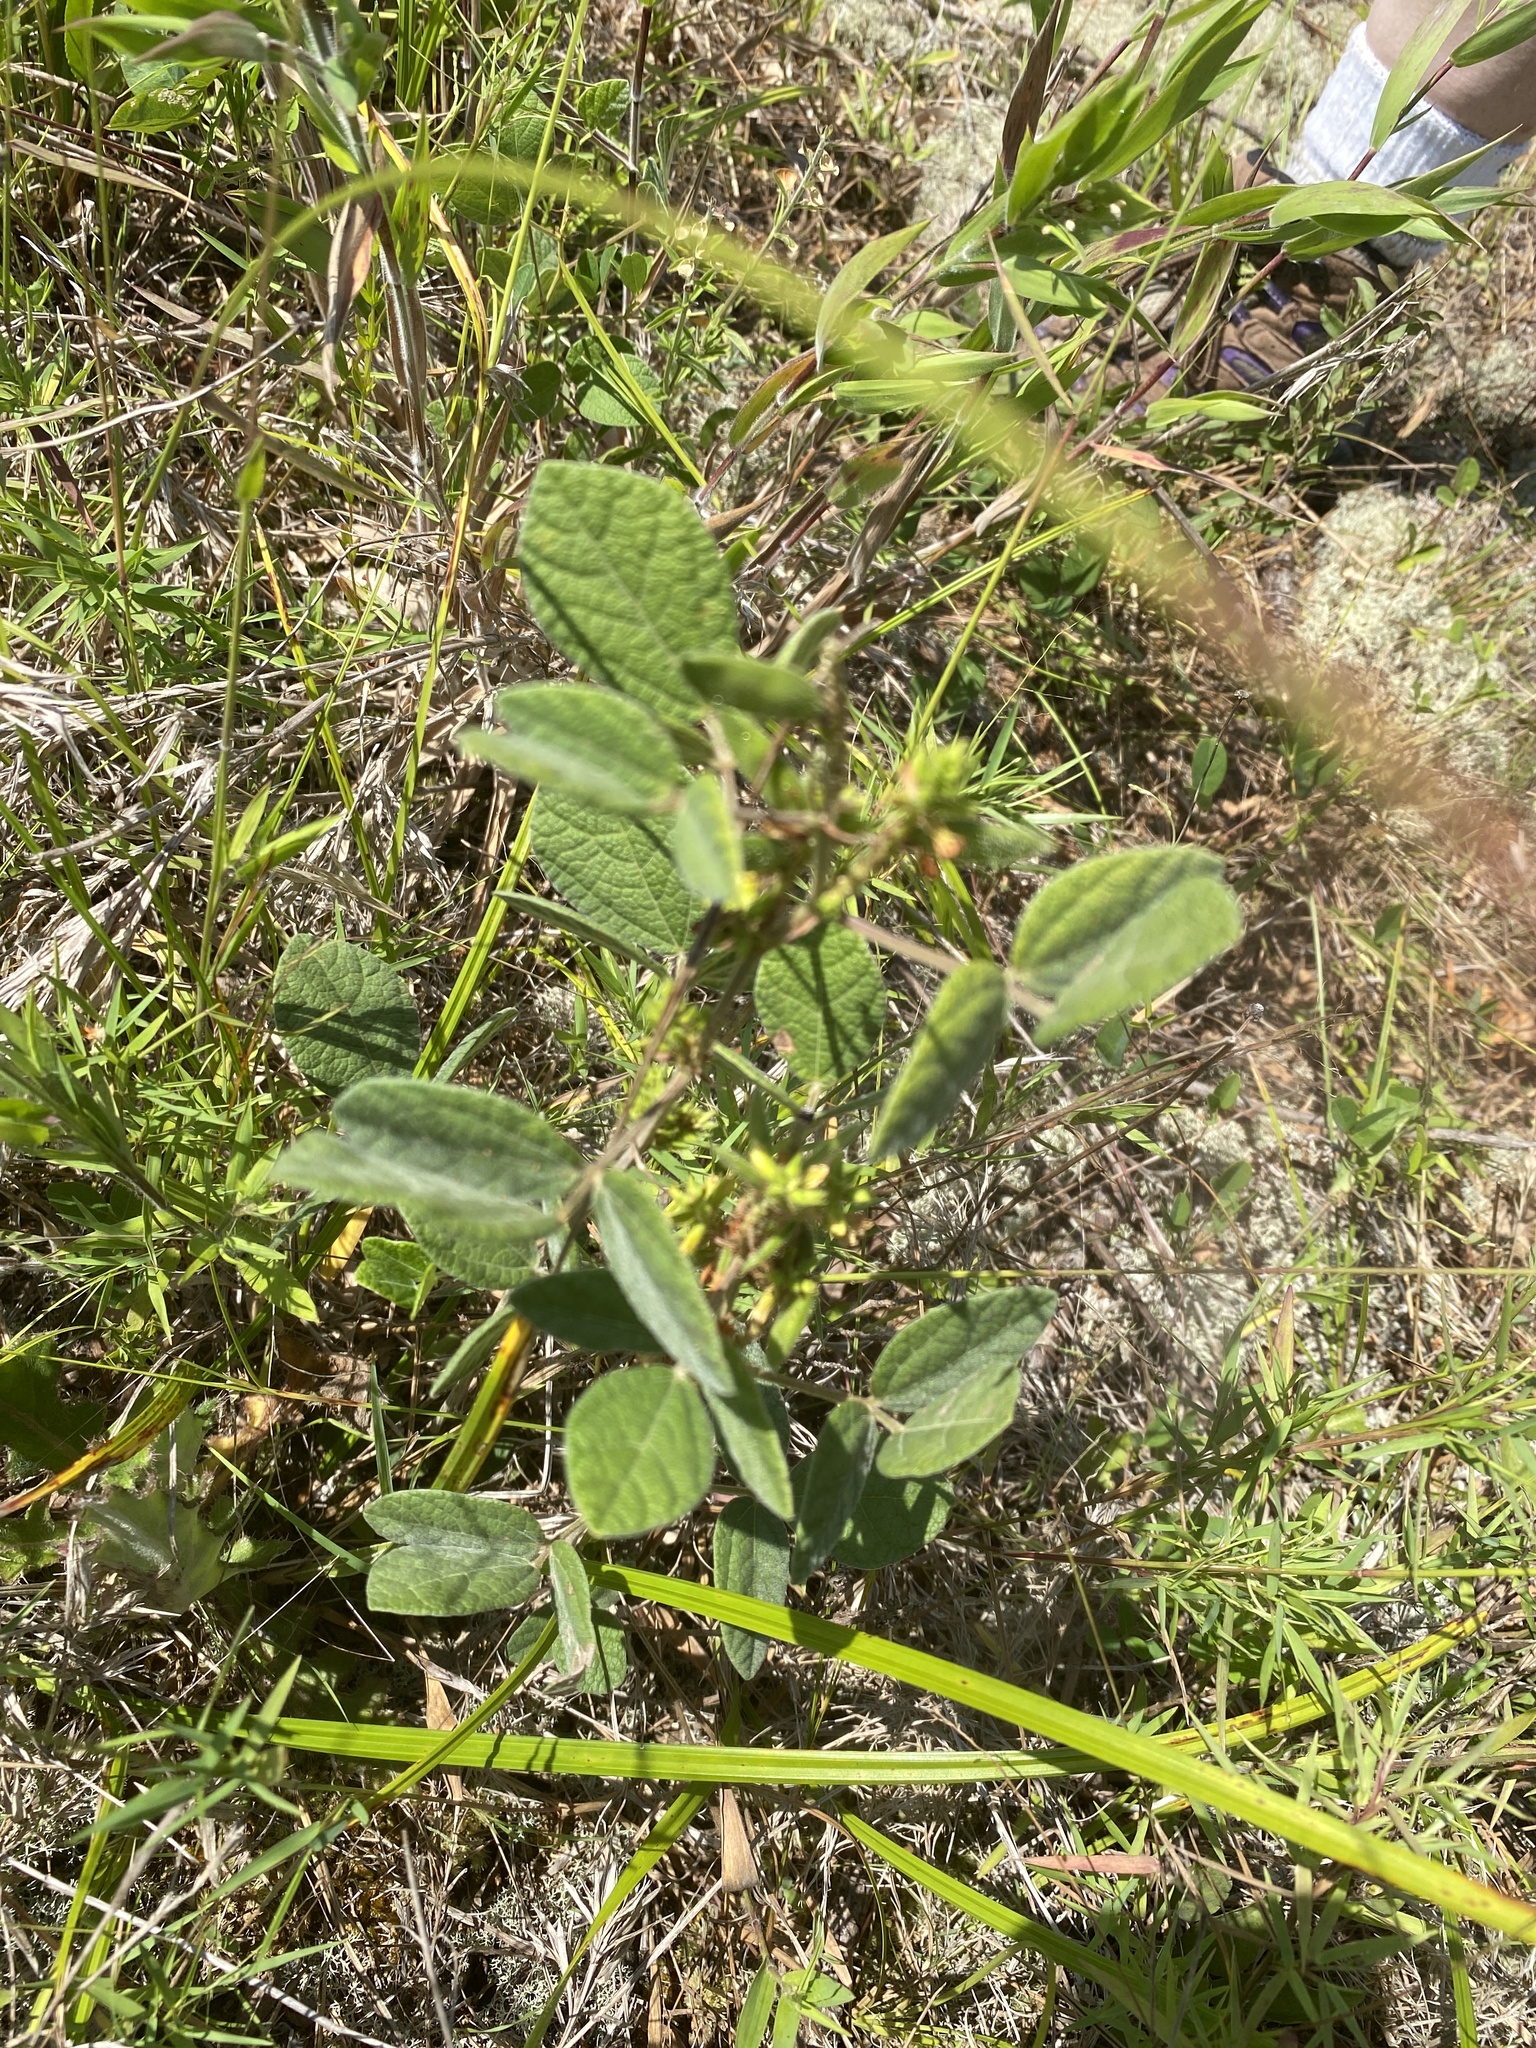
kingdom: Plantae
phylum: Tracheophyta
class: Magnoliopsida
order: Fabales
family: Fabaceae
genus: Rhynchosia
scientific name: Rhynchosia tomentosa
